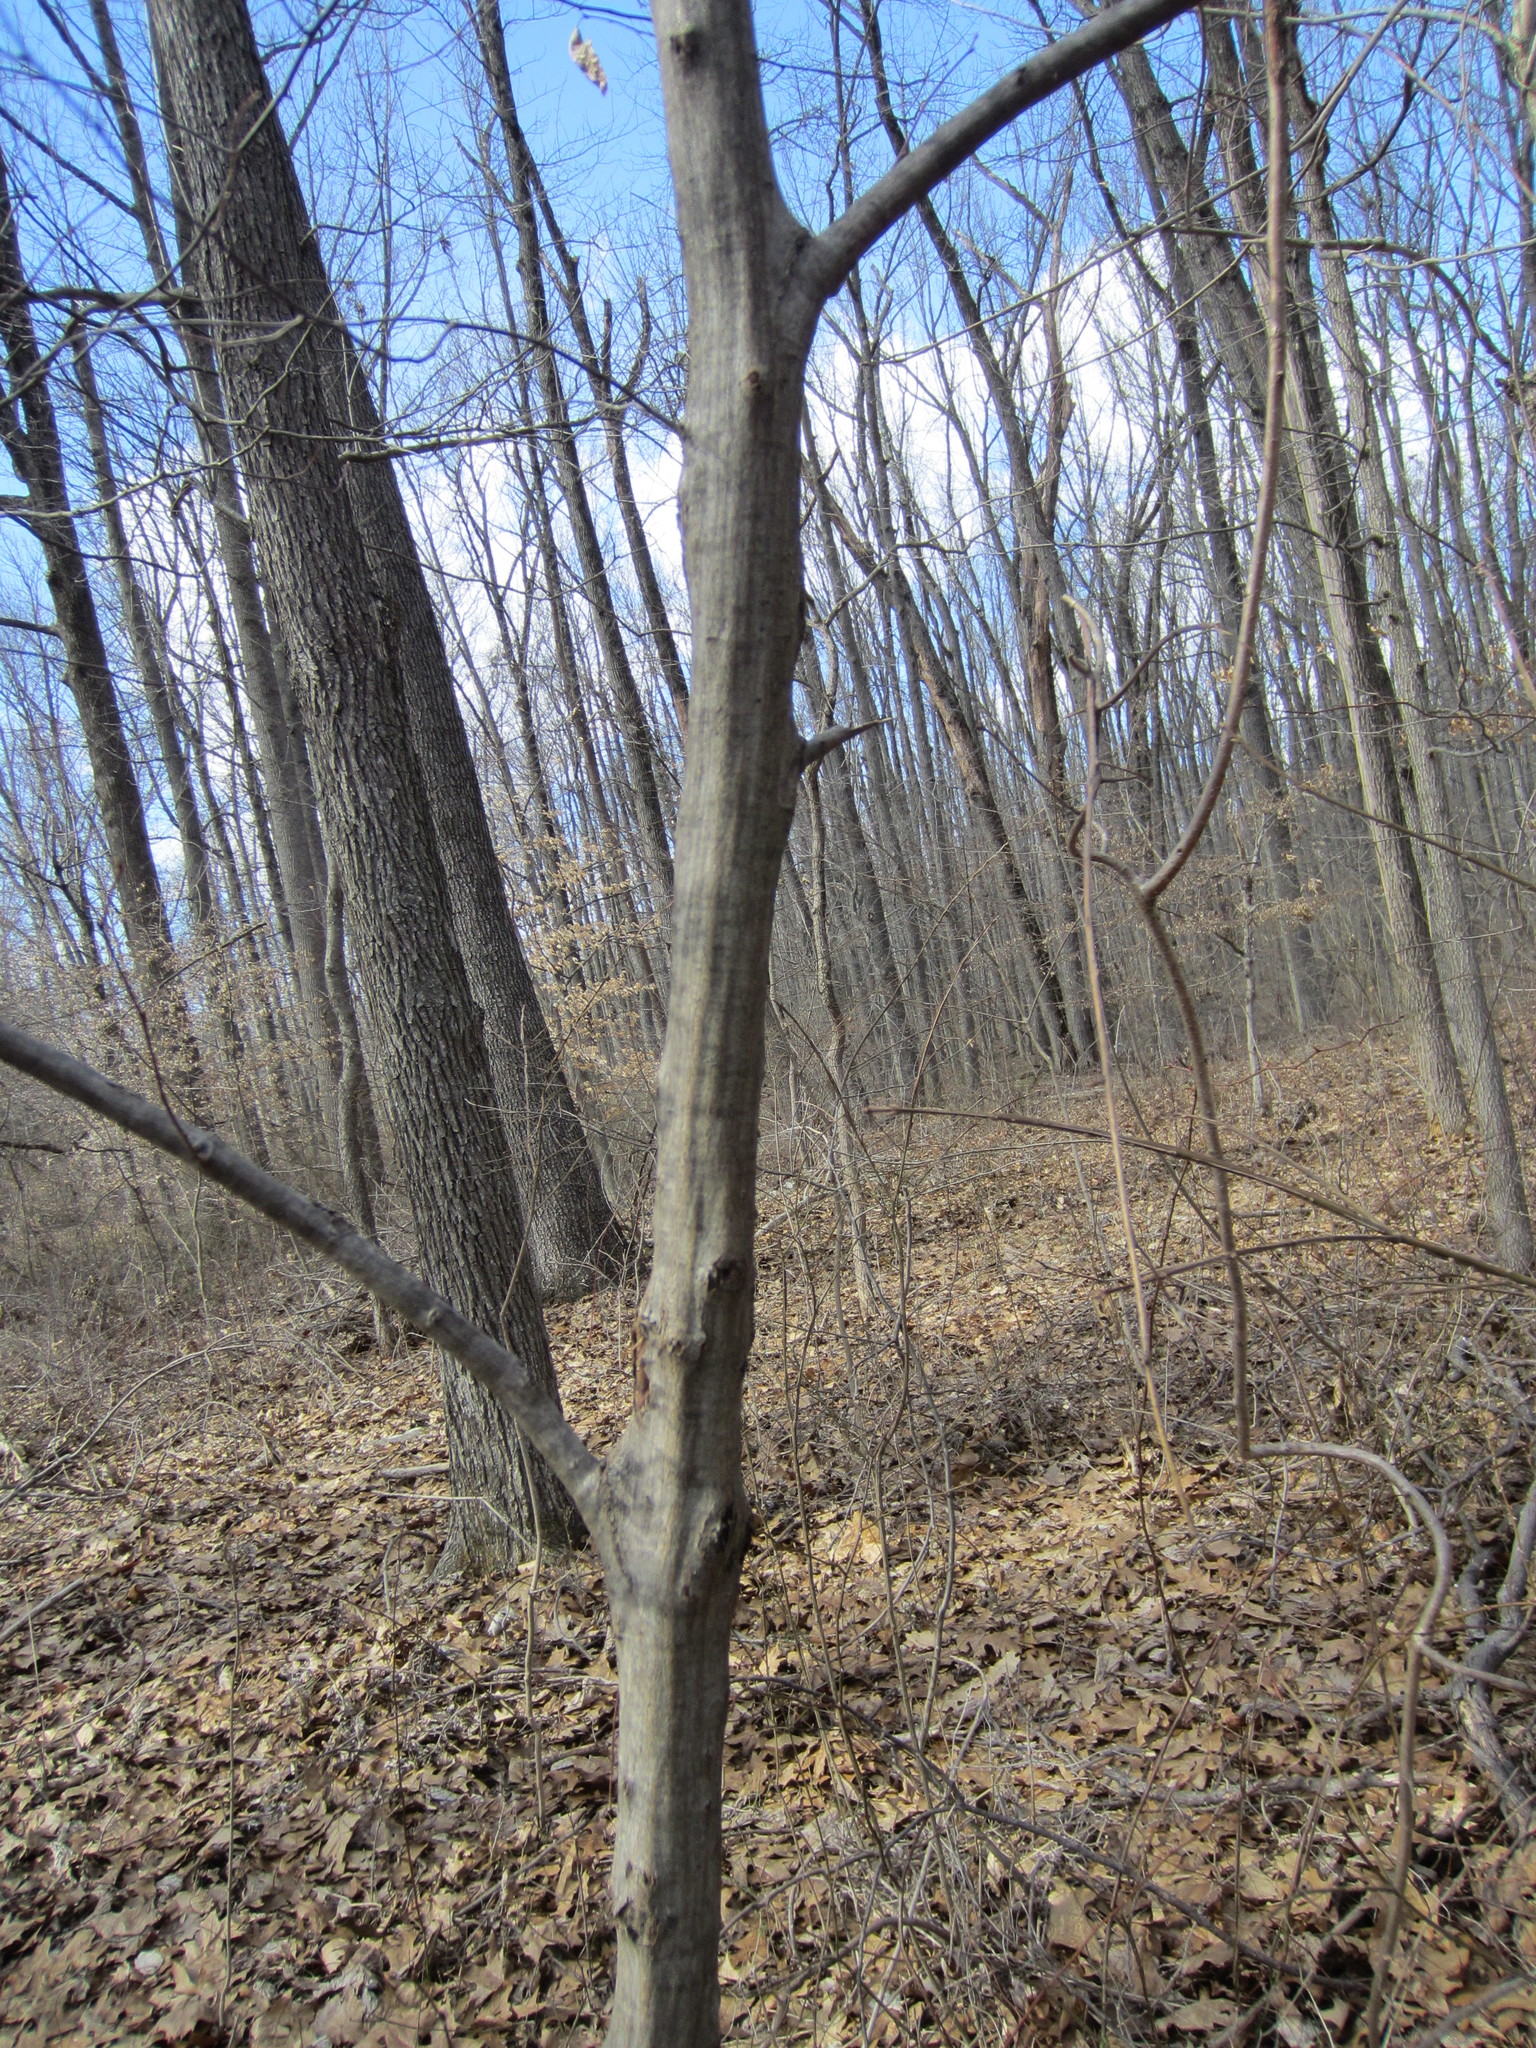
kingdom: Plantae
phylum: Tracheophyta
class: Magnoliopsida
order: Fagales
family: Betulaceae
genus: Carpinus
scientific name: Carpinus caroliniana
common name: American hornbeam
